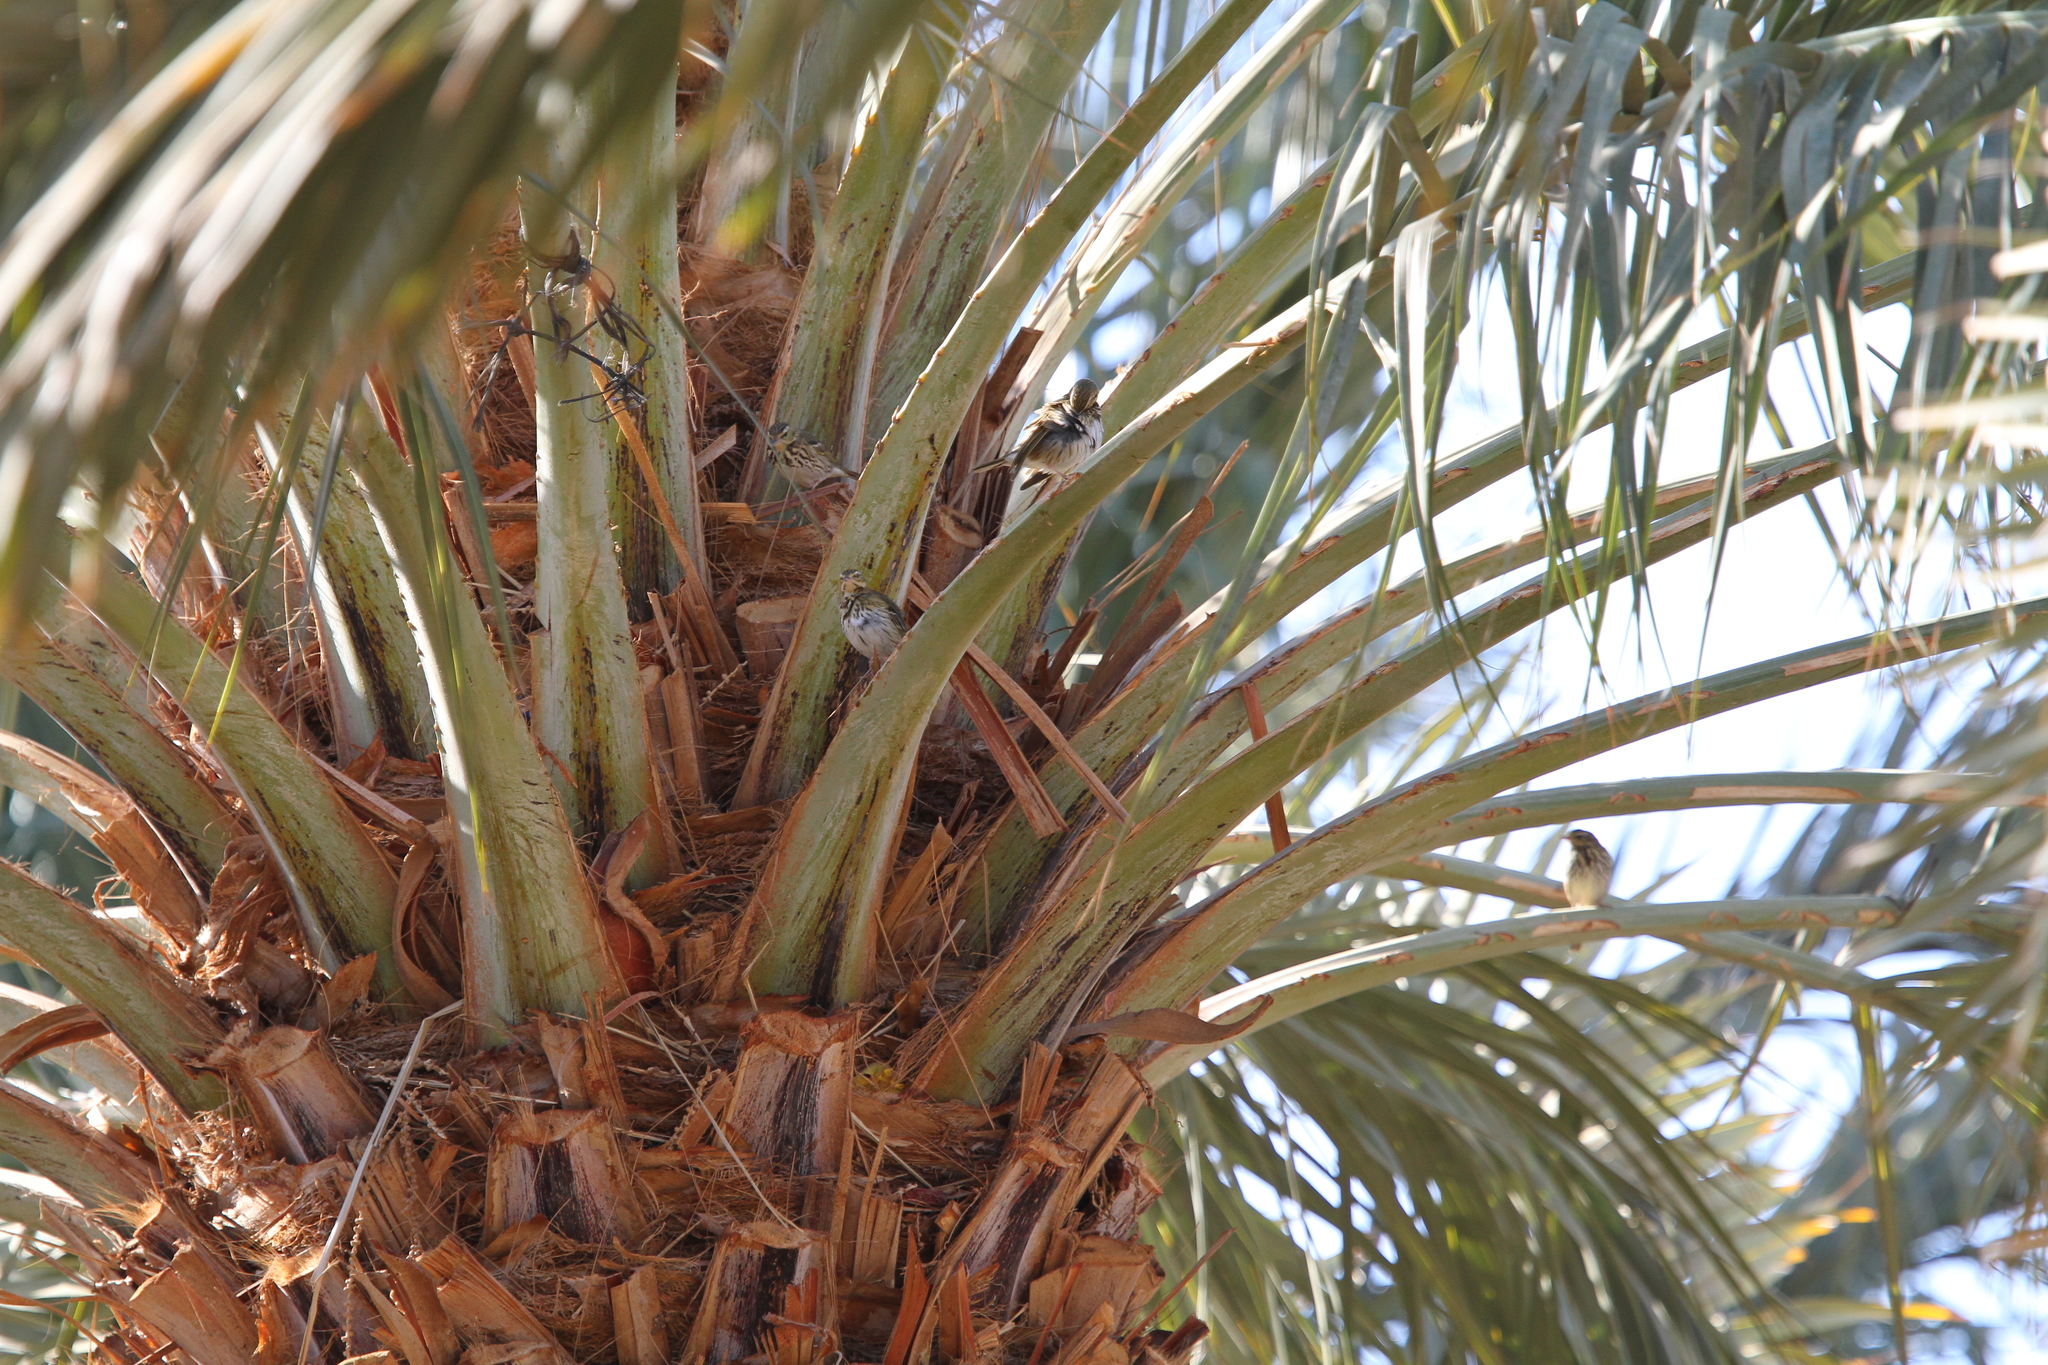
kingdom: Animalia
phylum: Chordata
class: Aves
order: Passeriformes
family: Motacillidae
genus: Anthus
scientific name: Anthus hodgsoni
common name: Olive-backed pipit
